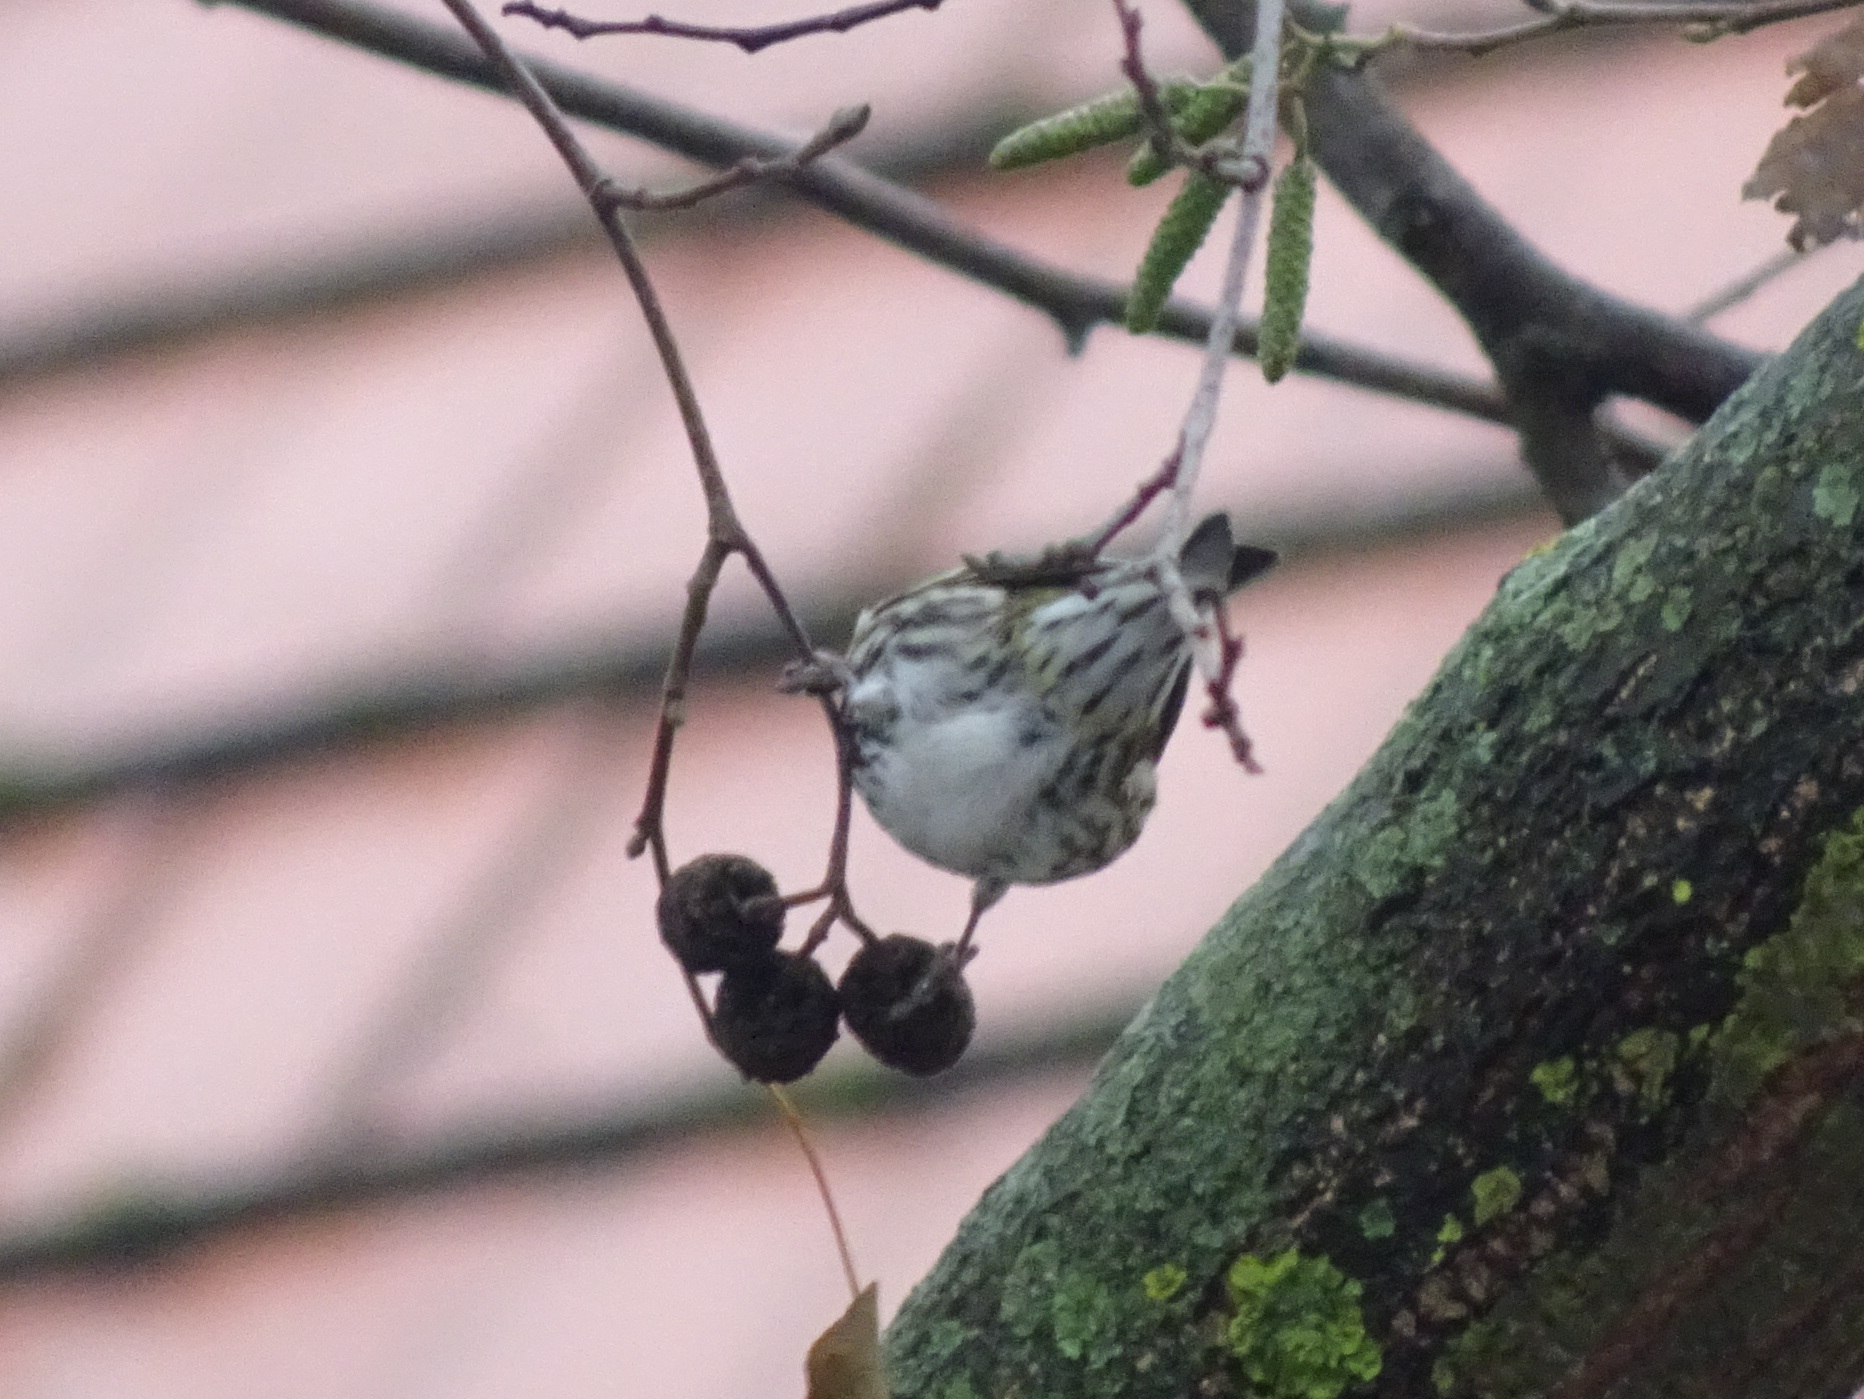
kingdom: Animalia
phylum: Chordata
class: Aves
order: Passeriformes
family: Fringillidae
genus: Spinus
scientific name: Spinus spinus
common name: Eurasian siskin
